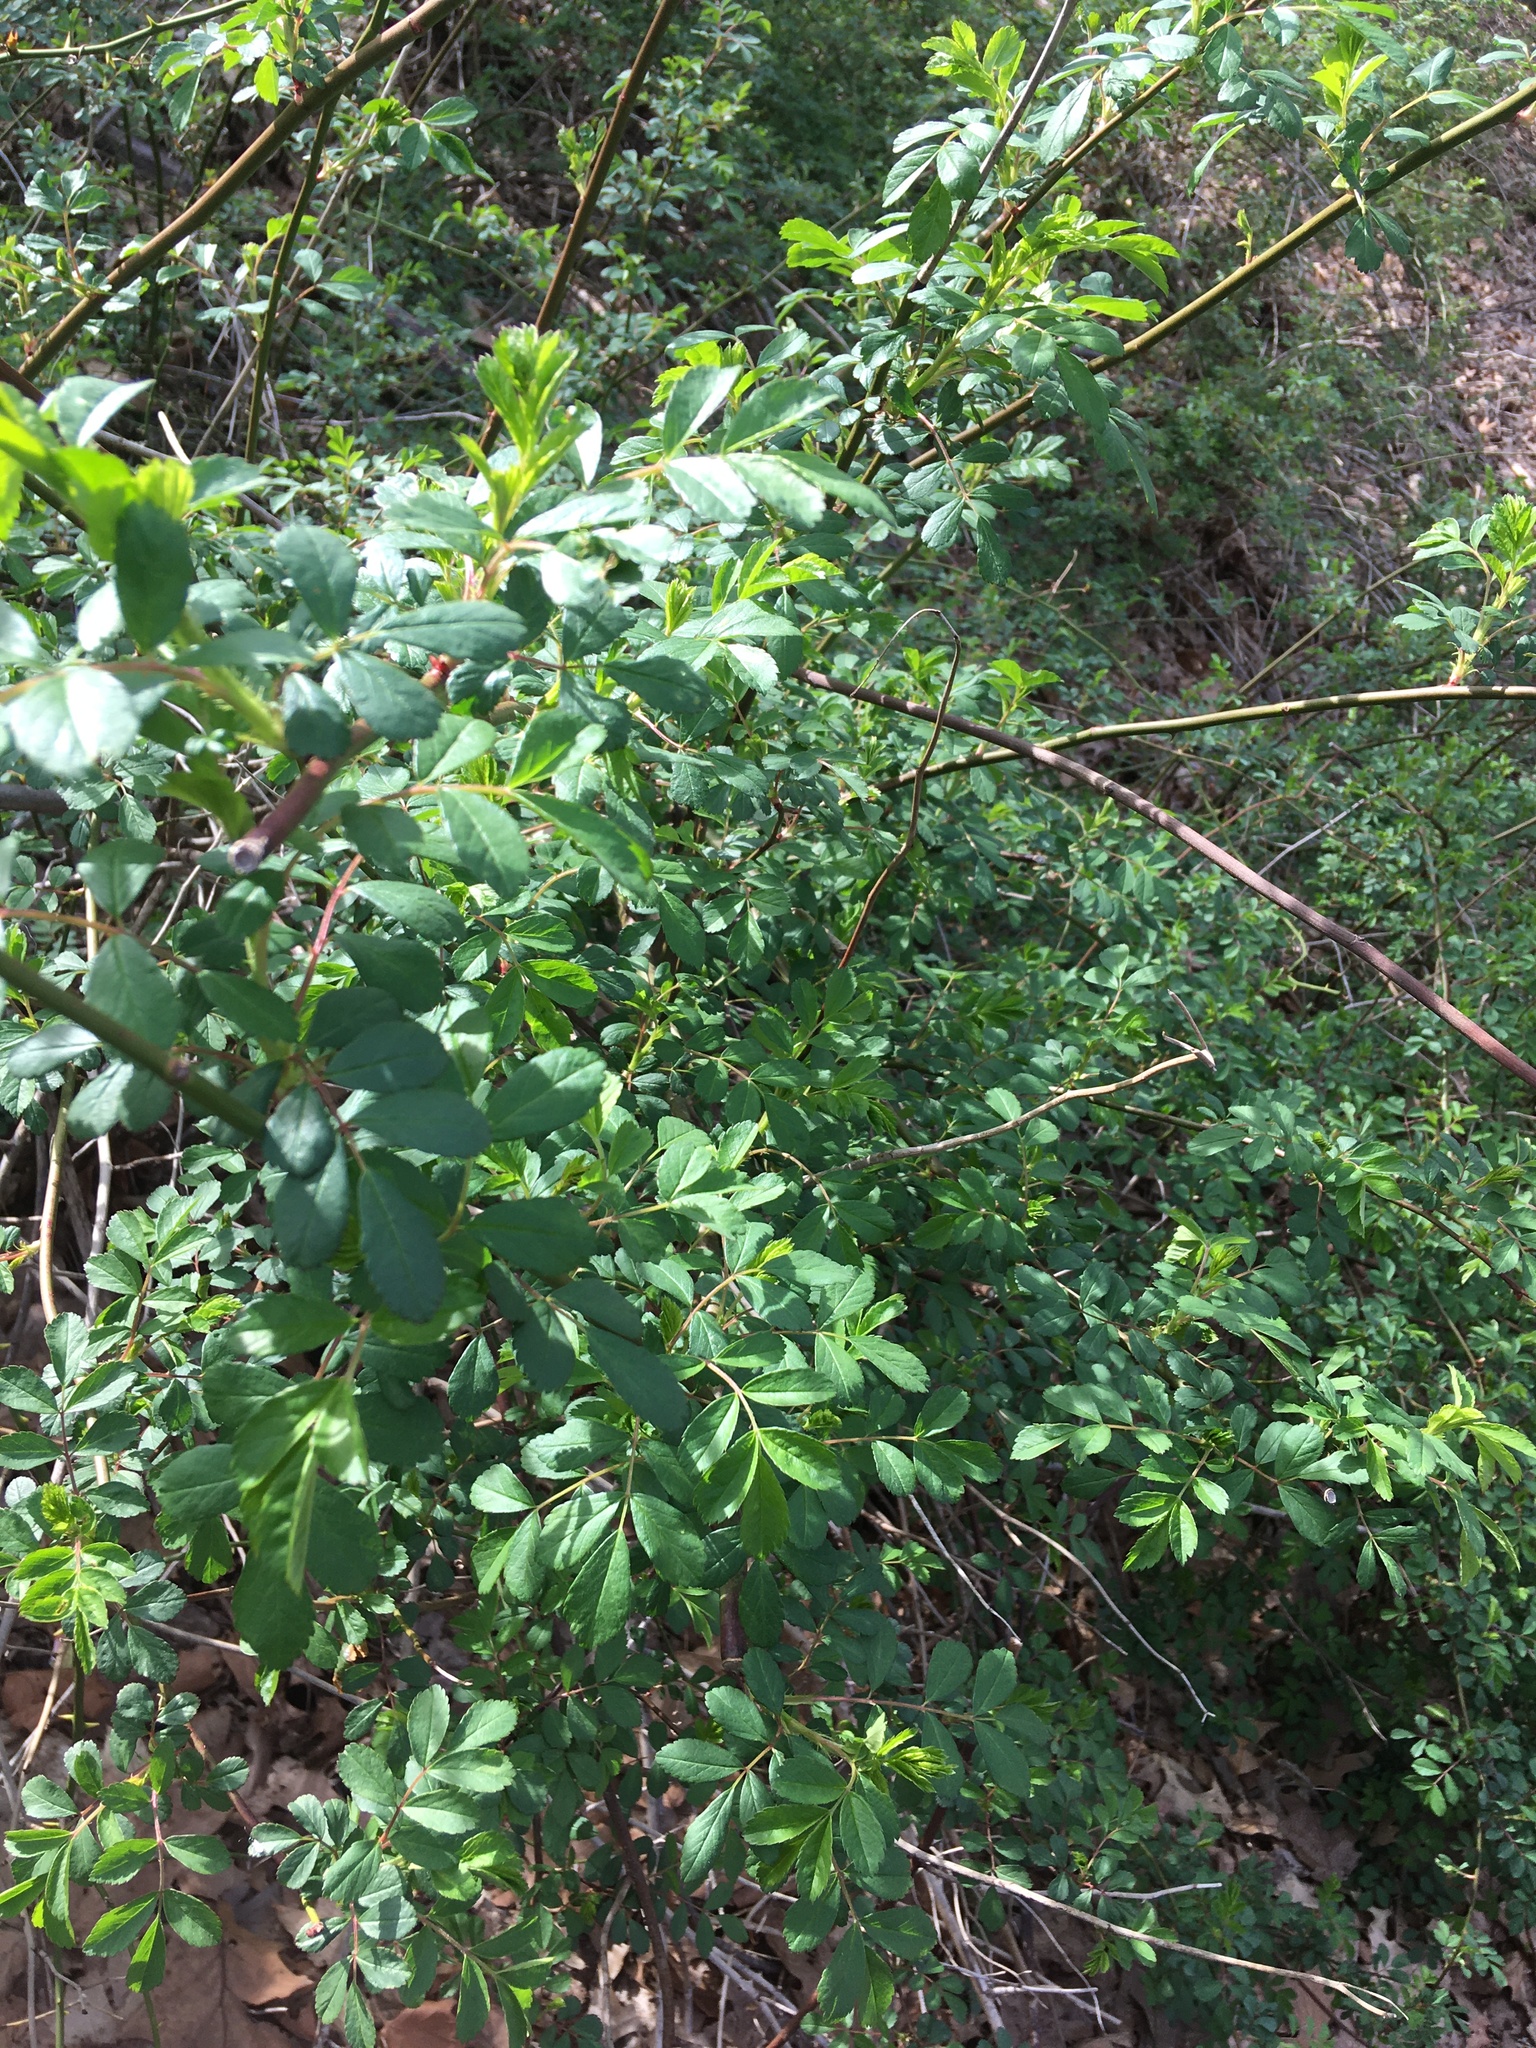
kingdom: Plantae
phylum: Tracheophyta
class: Magnoliopsida
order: Rosales
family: Rosaceae
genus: Rosa
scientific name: Rosa multiflora
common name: Multiflora rose
